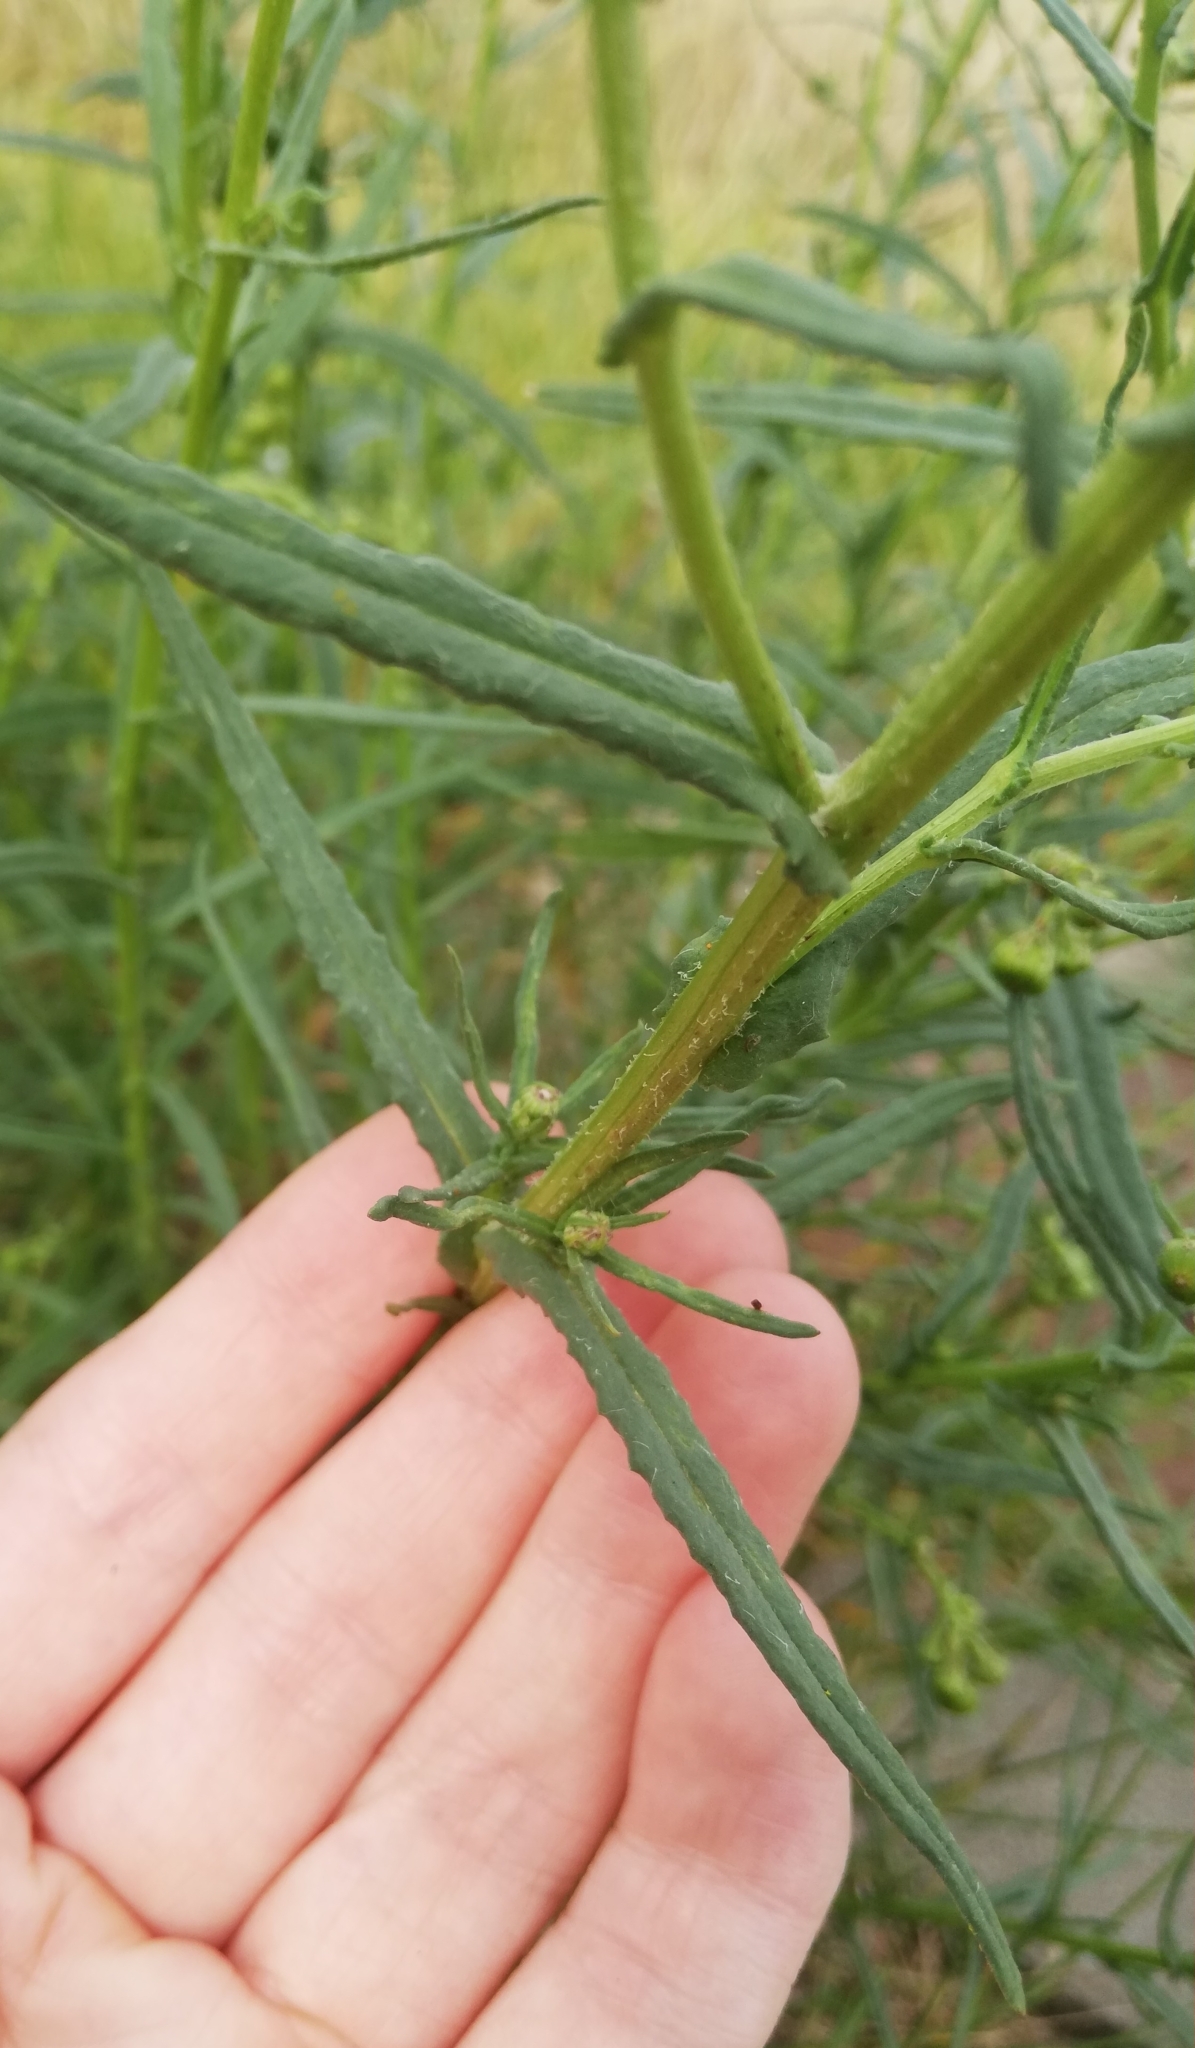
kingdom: Plantae
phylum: Tracheophyta
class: Magnoliopsida
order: Asterales
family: Asteraceae
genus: Senecio
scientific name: Senecio inaequidens
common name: Narrow-leaved ragwort
